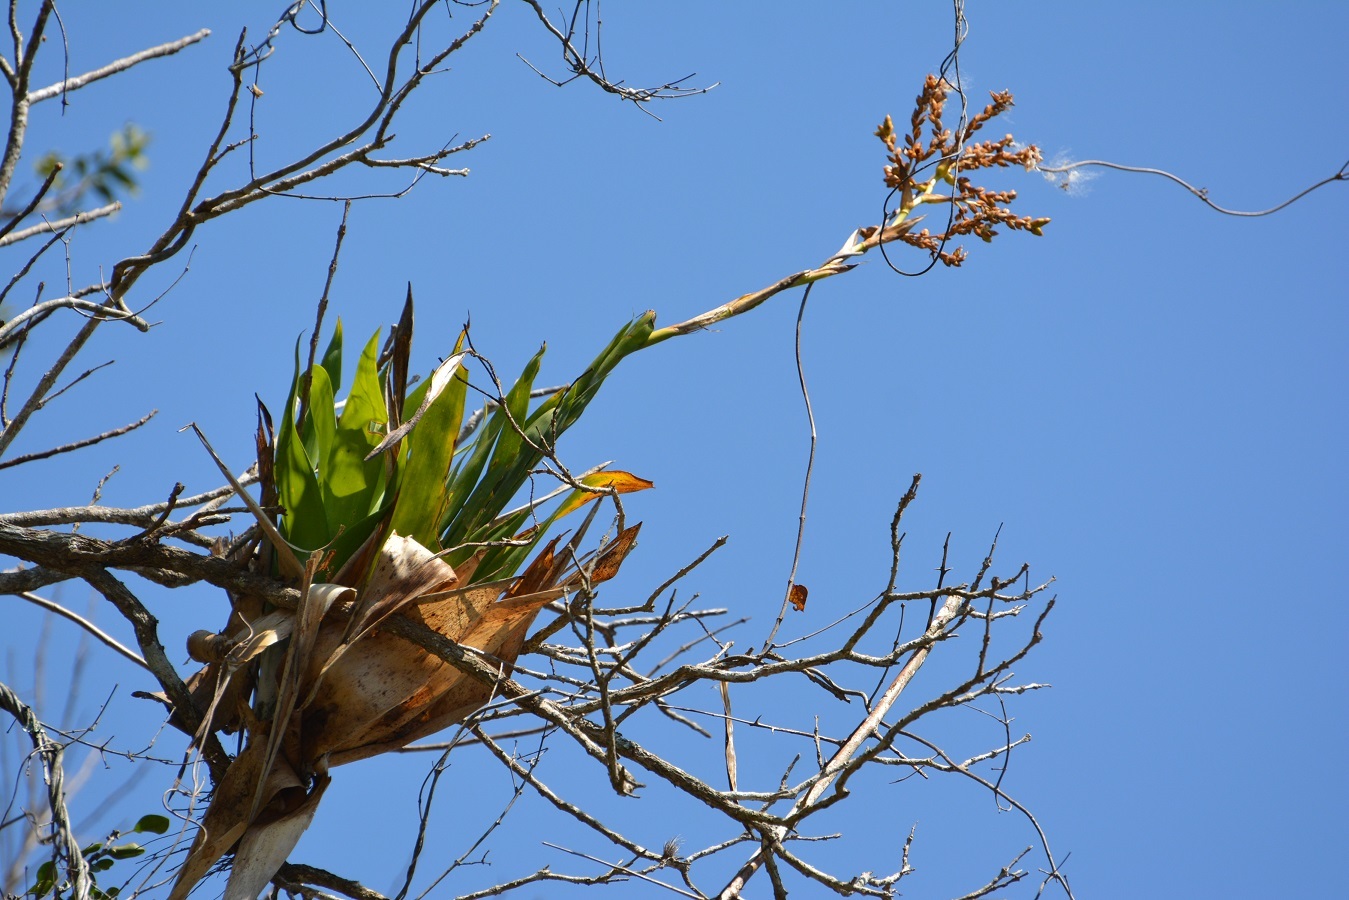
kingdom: Plantae
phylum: Tracheophyta
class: Liliopsida
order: Poales
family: Bromeliaceae
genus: Catopsis
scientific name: Catopsis occulta
